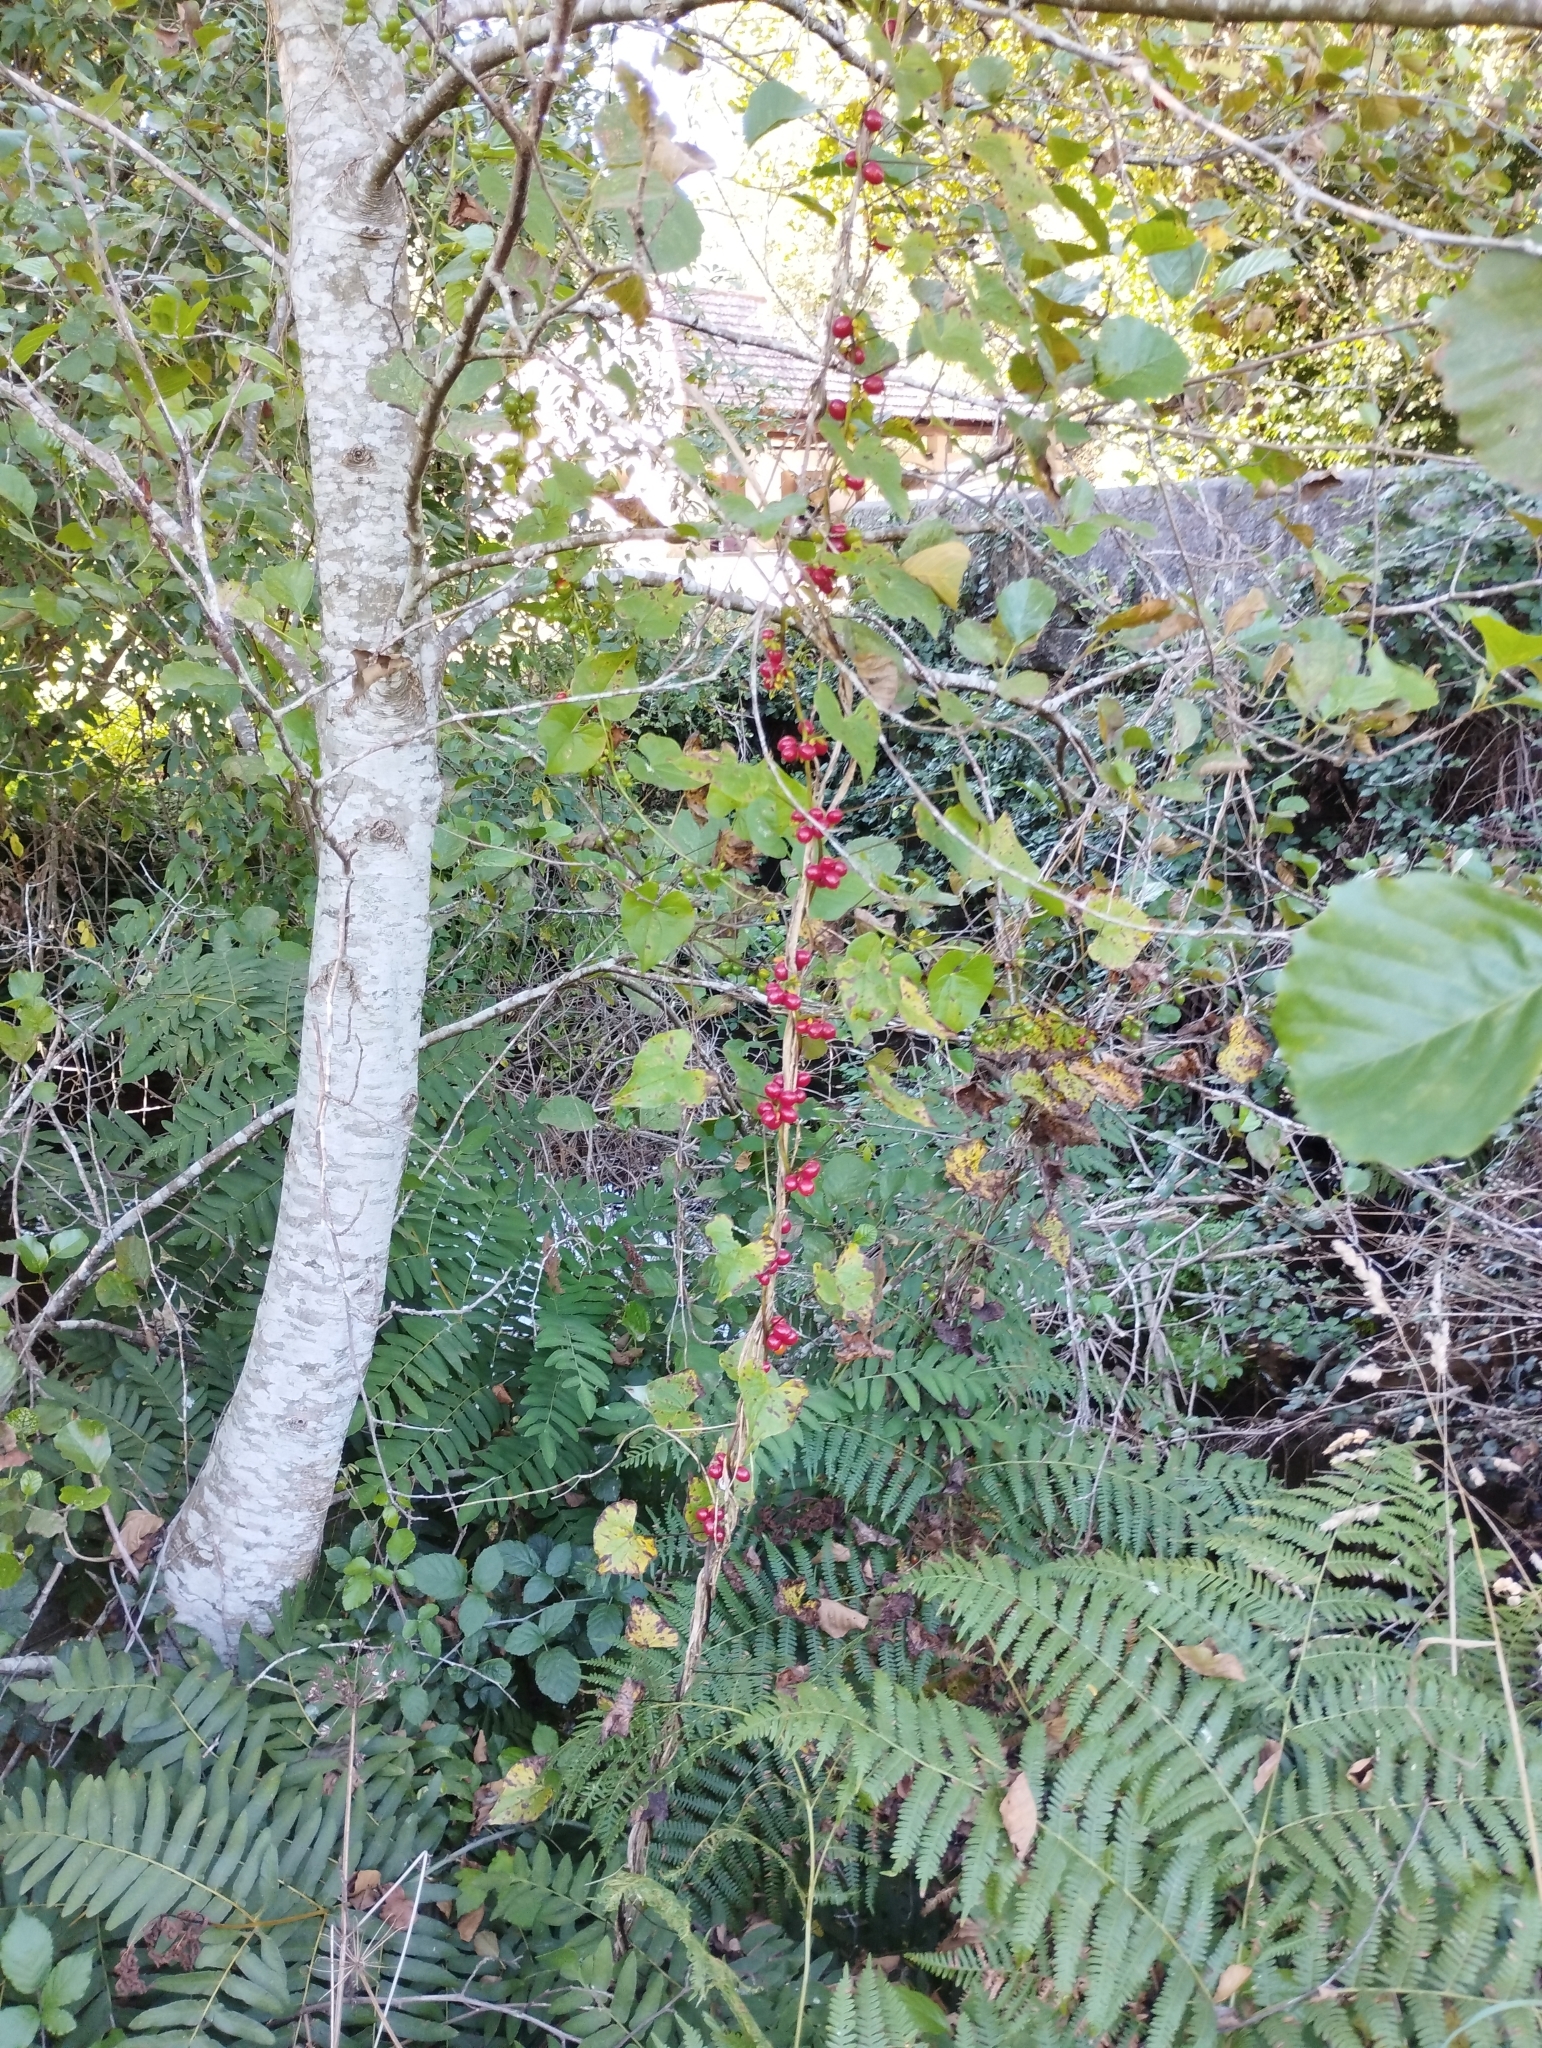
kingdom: Plantae
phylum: Tracheophyta
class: Liliopsida
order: Dioscoreales
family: Dioscoreaceae
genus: Dioscorea
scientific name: Dioscorea communis
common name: Black-bindweed
